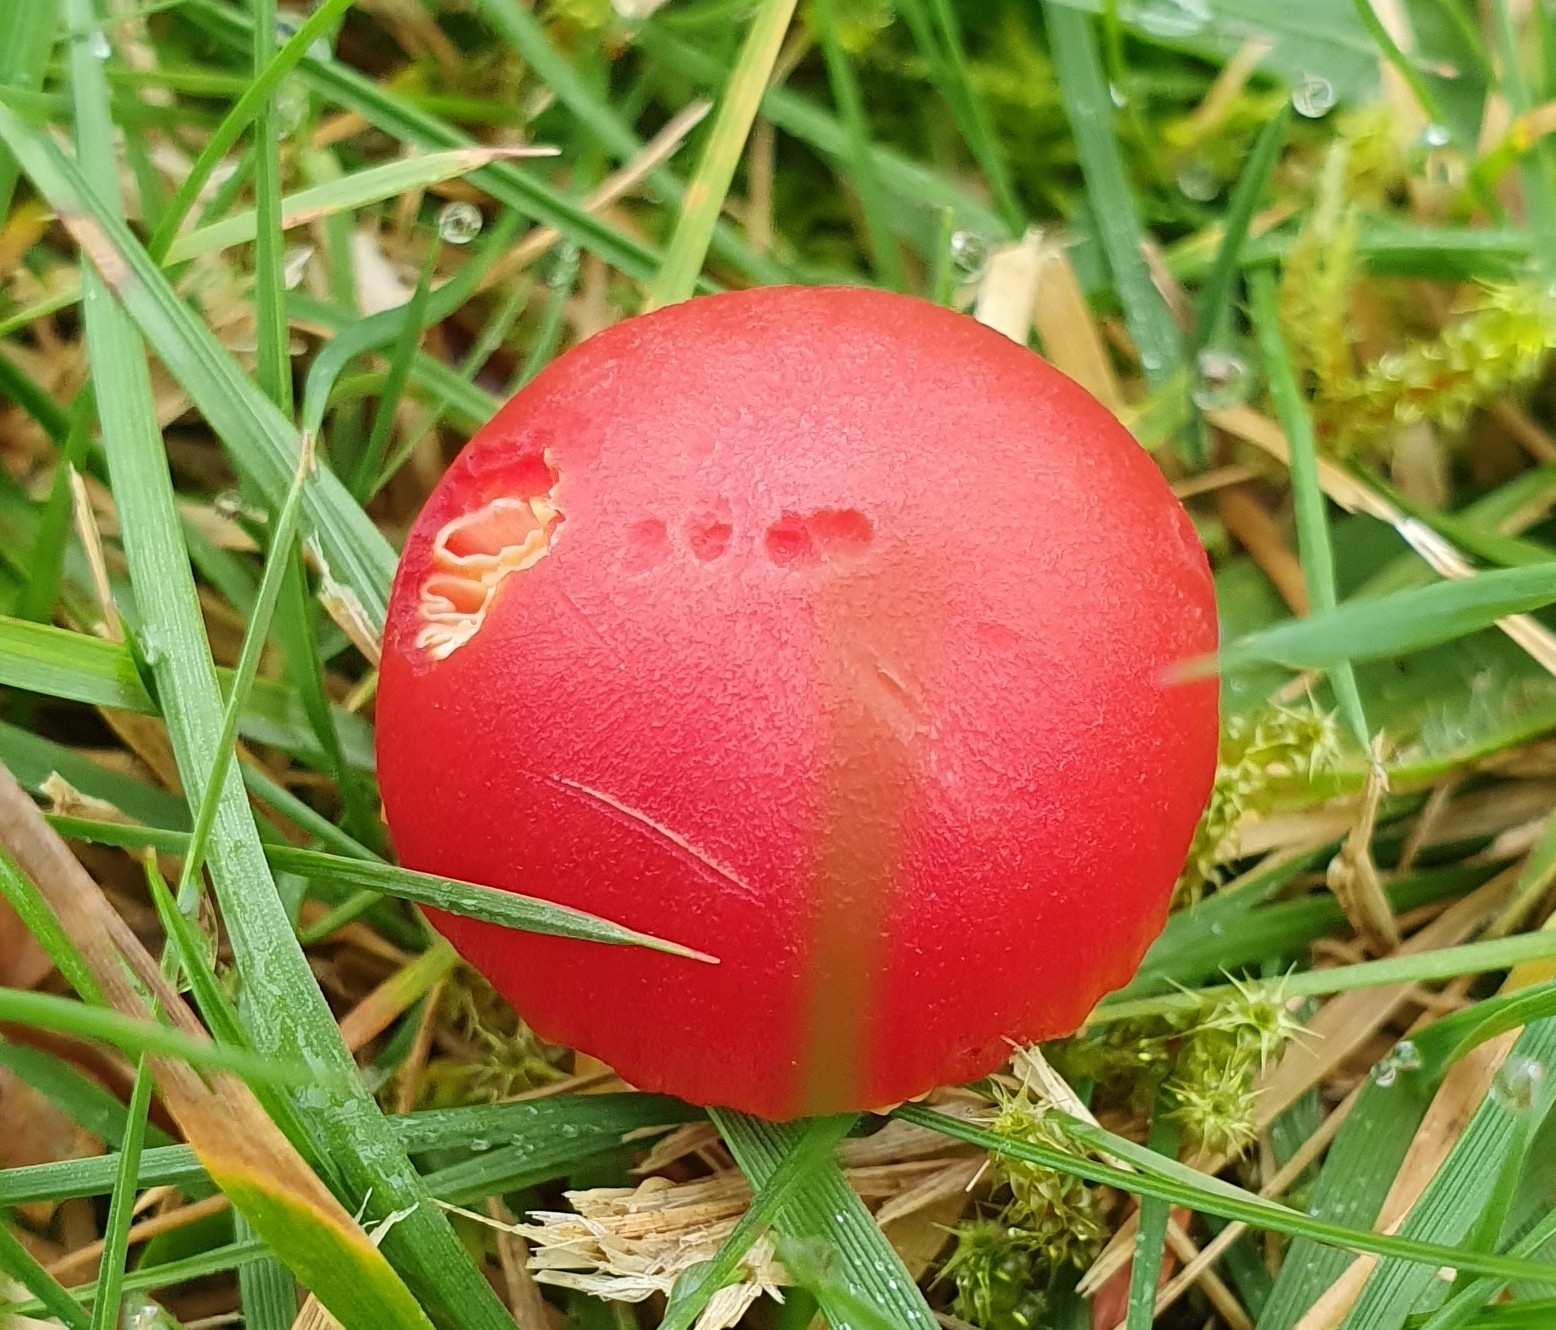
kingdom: Fungi
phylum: Basidiomycota
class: Agaricomycetes
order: Agaricales
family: Hygrophoraceae
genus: Hygrocybe
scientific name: Hygrocybe coccinea
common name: Scarlet hood
